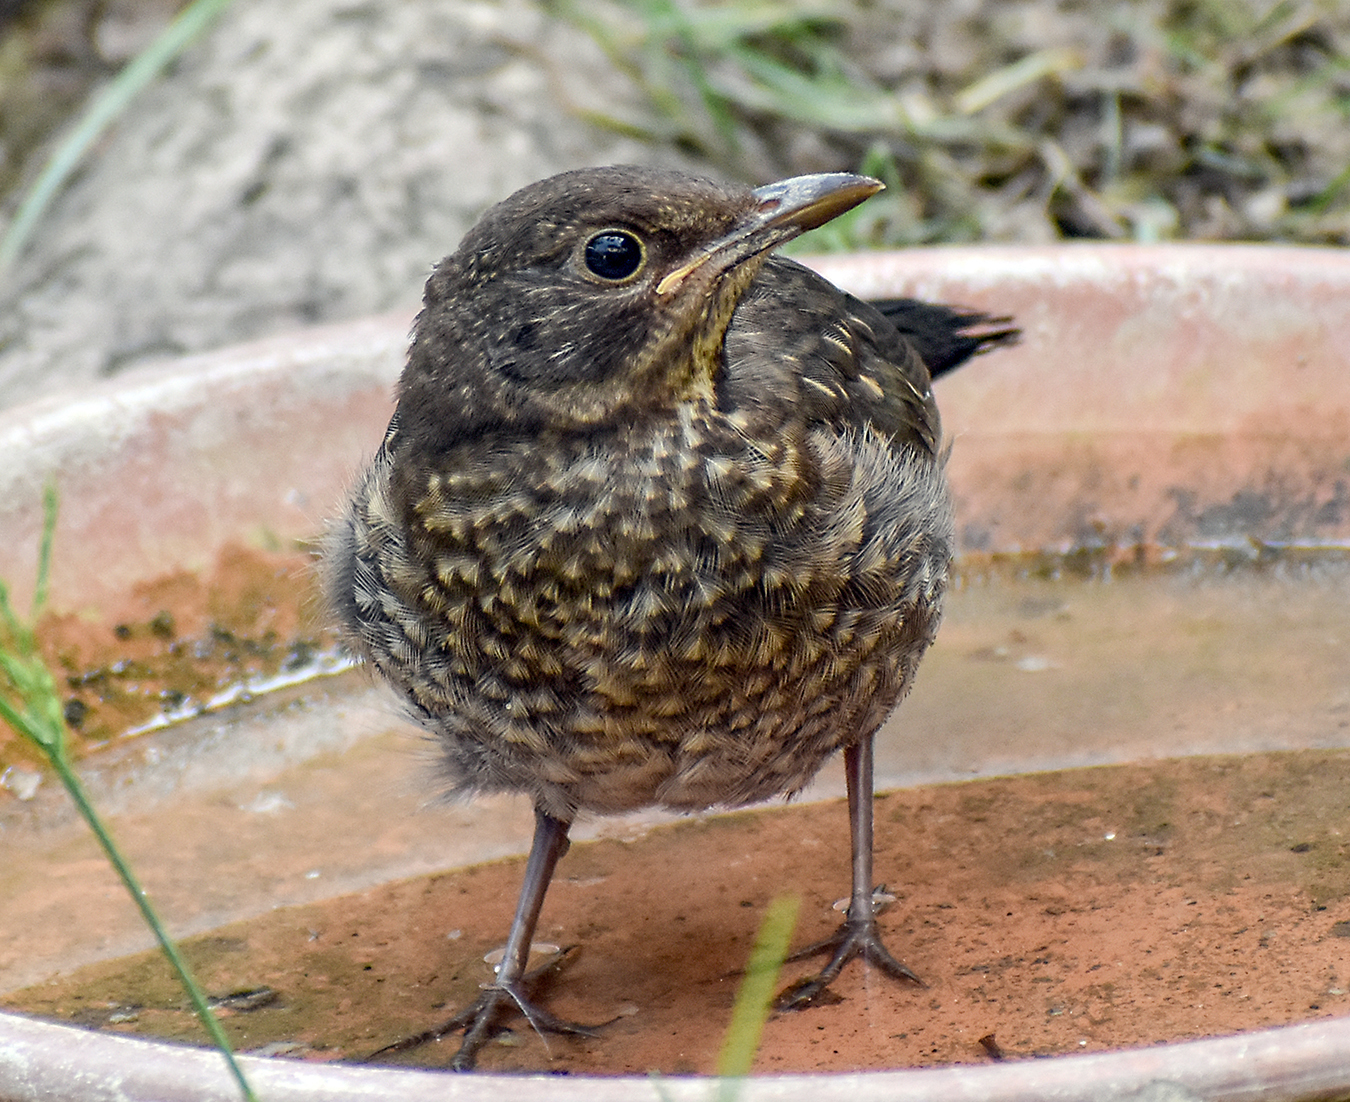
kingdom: Animalia
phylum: Chordata
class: Aves
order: Passeriformes
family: Turdidae
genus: Turdus
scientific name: Turdus merula
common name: Common blackbird
